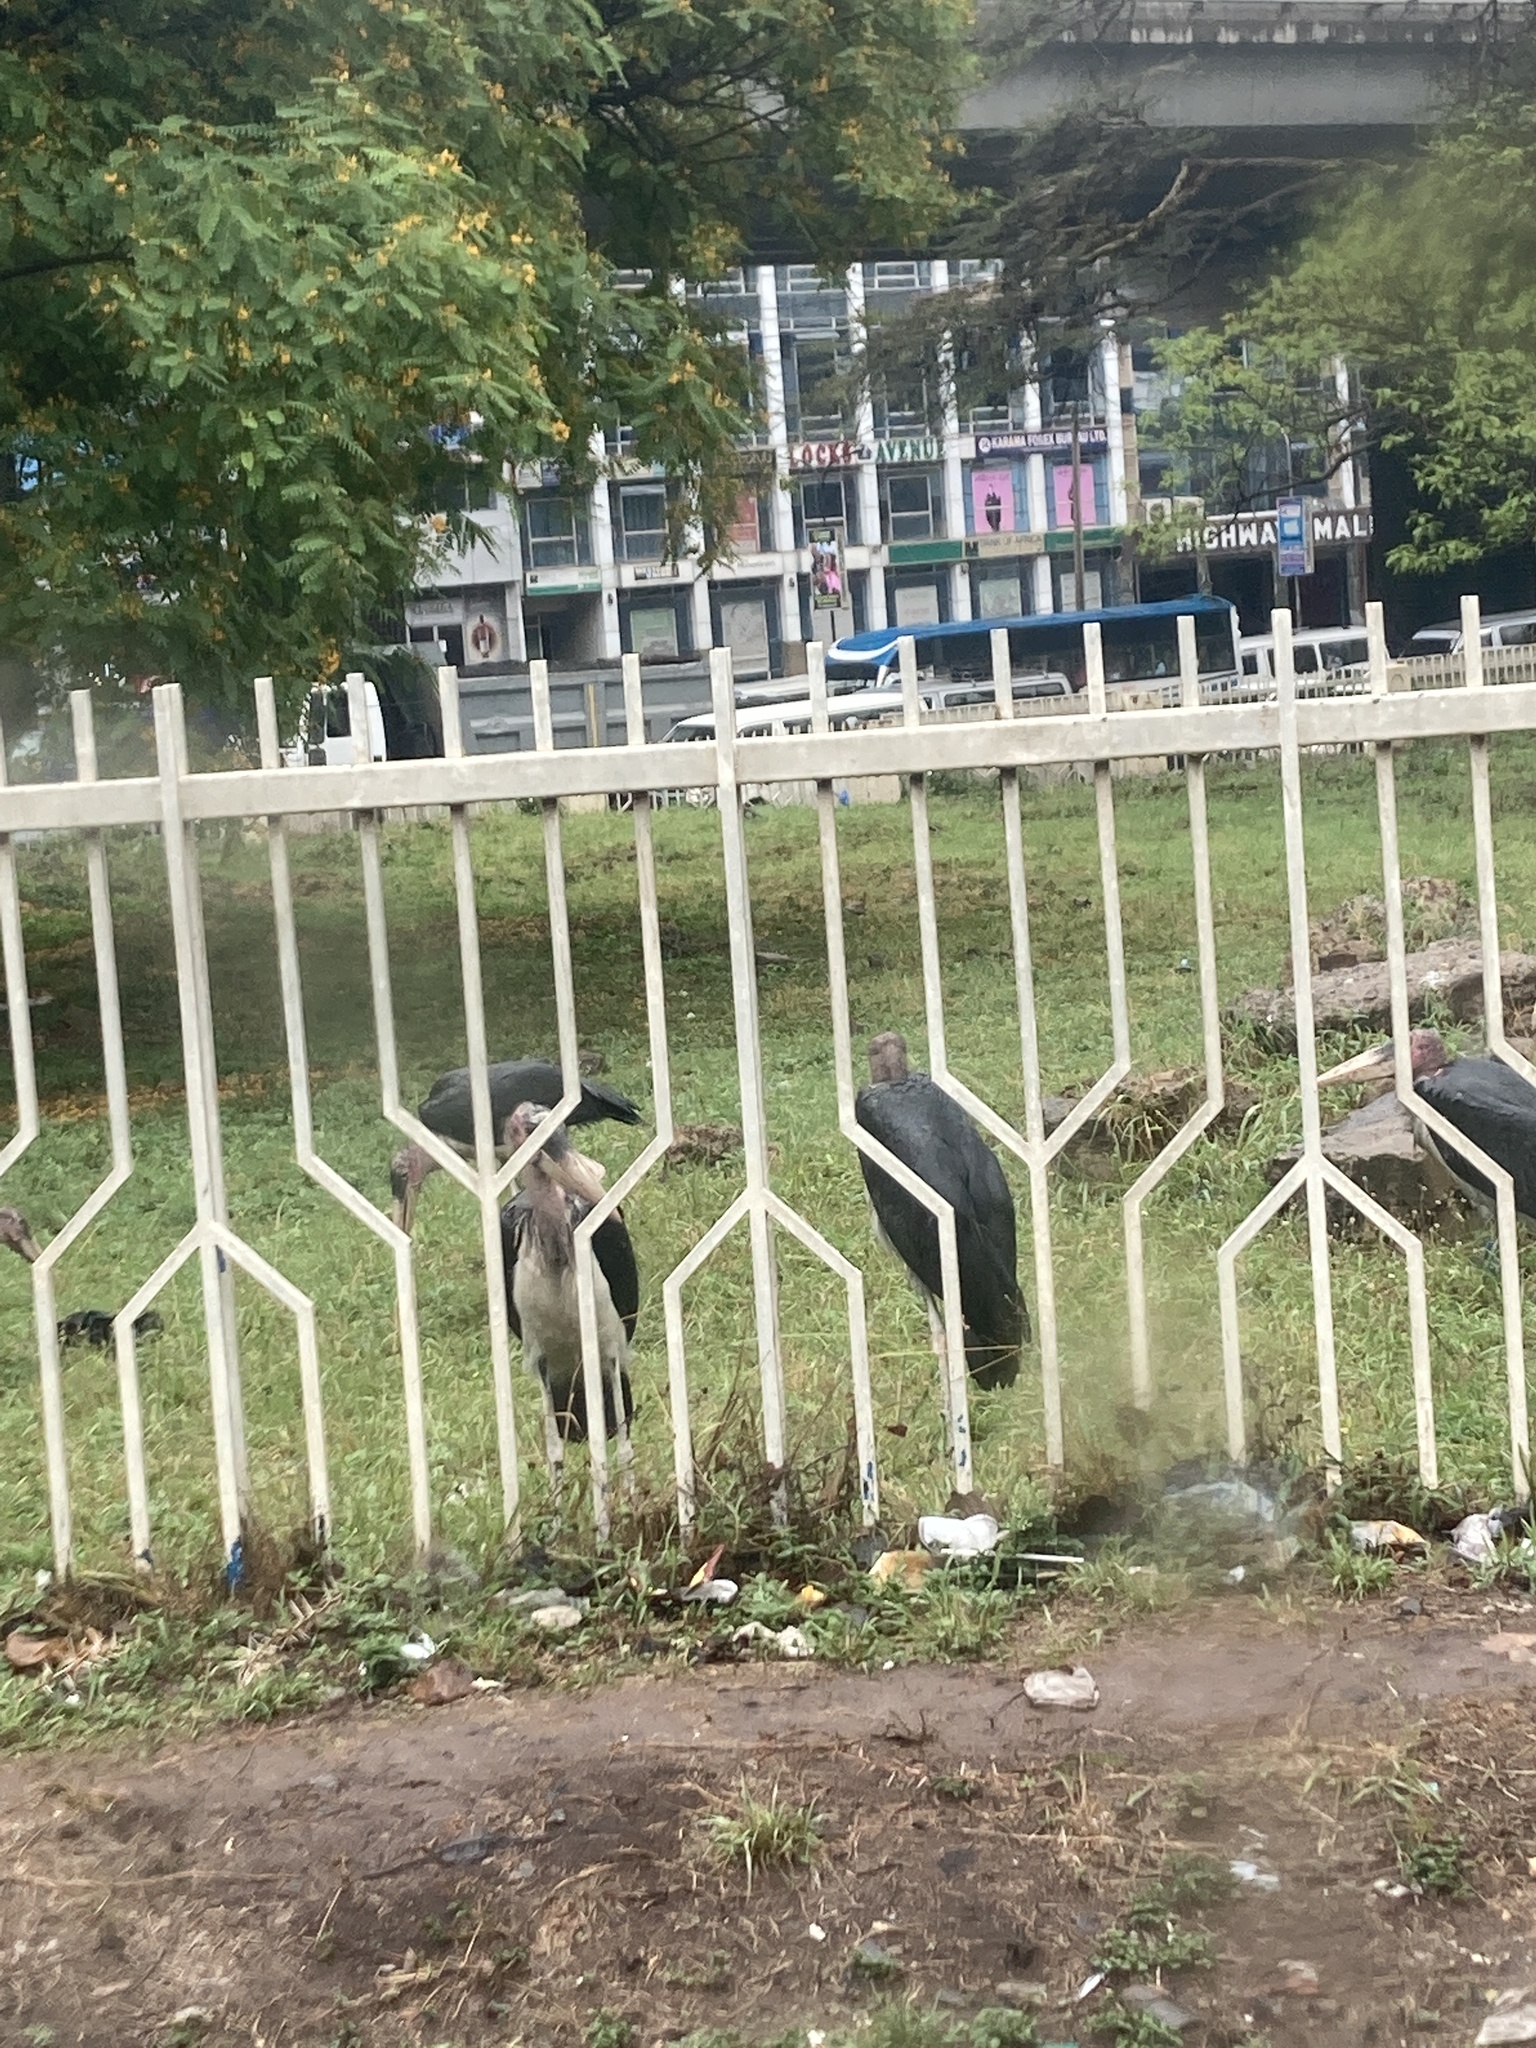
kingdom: Animalia
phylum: Chordata
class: Aves
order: Ciconiiformes
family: Ciconiidae
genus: Leptoptilos
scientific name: Leptoptilos crumenifer
